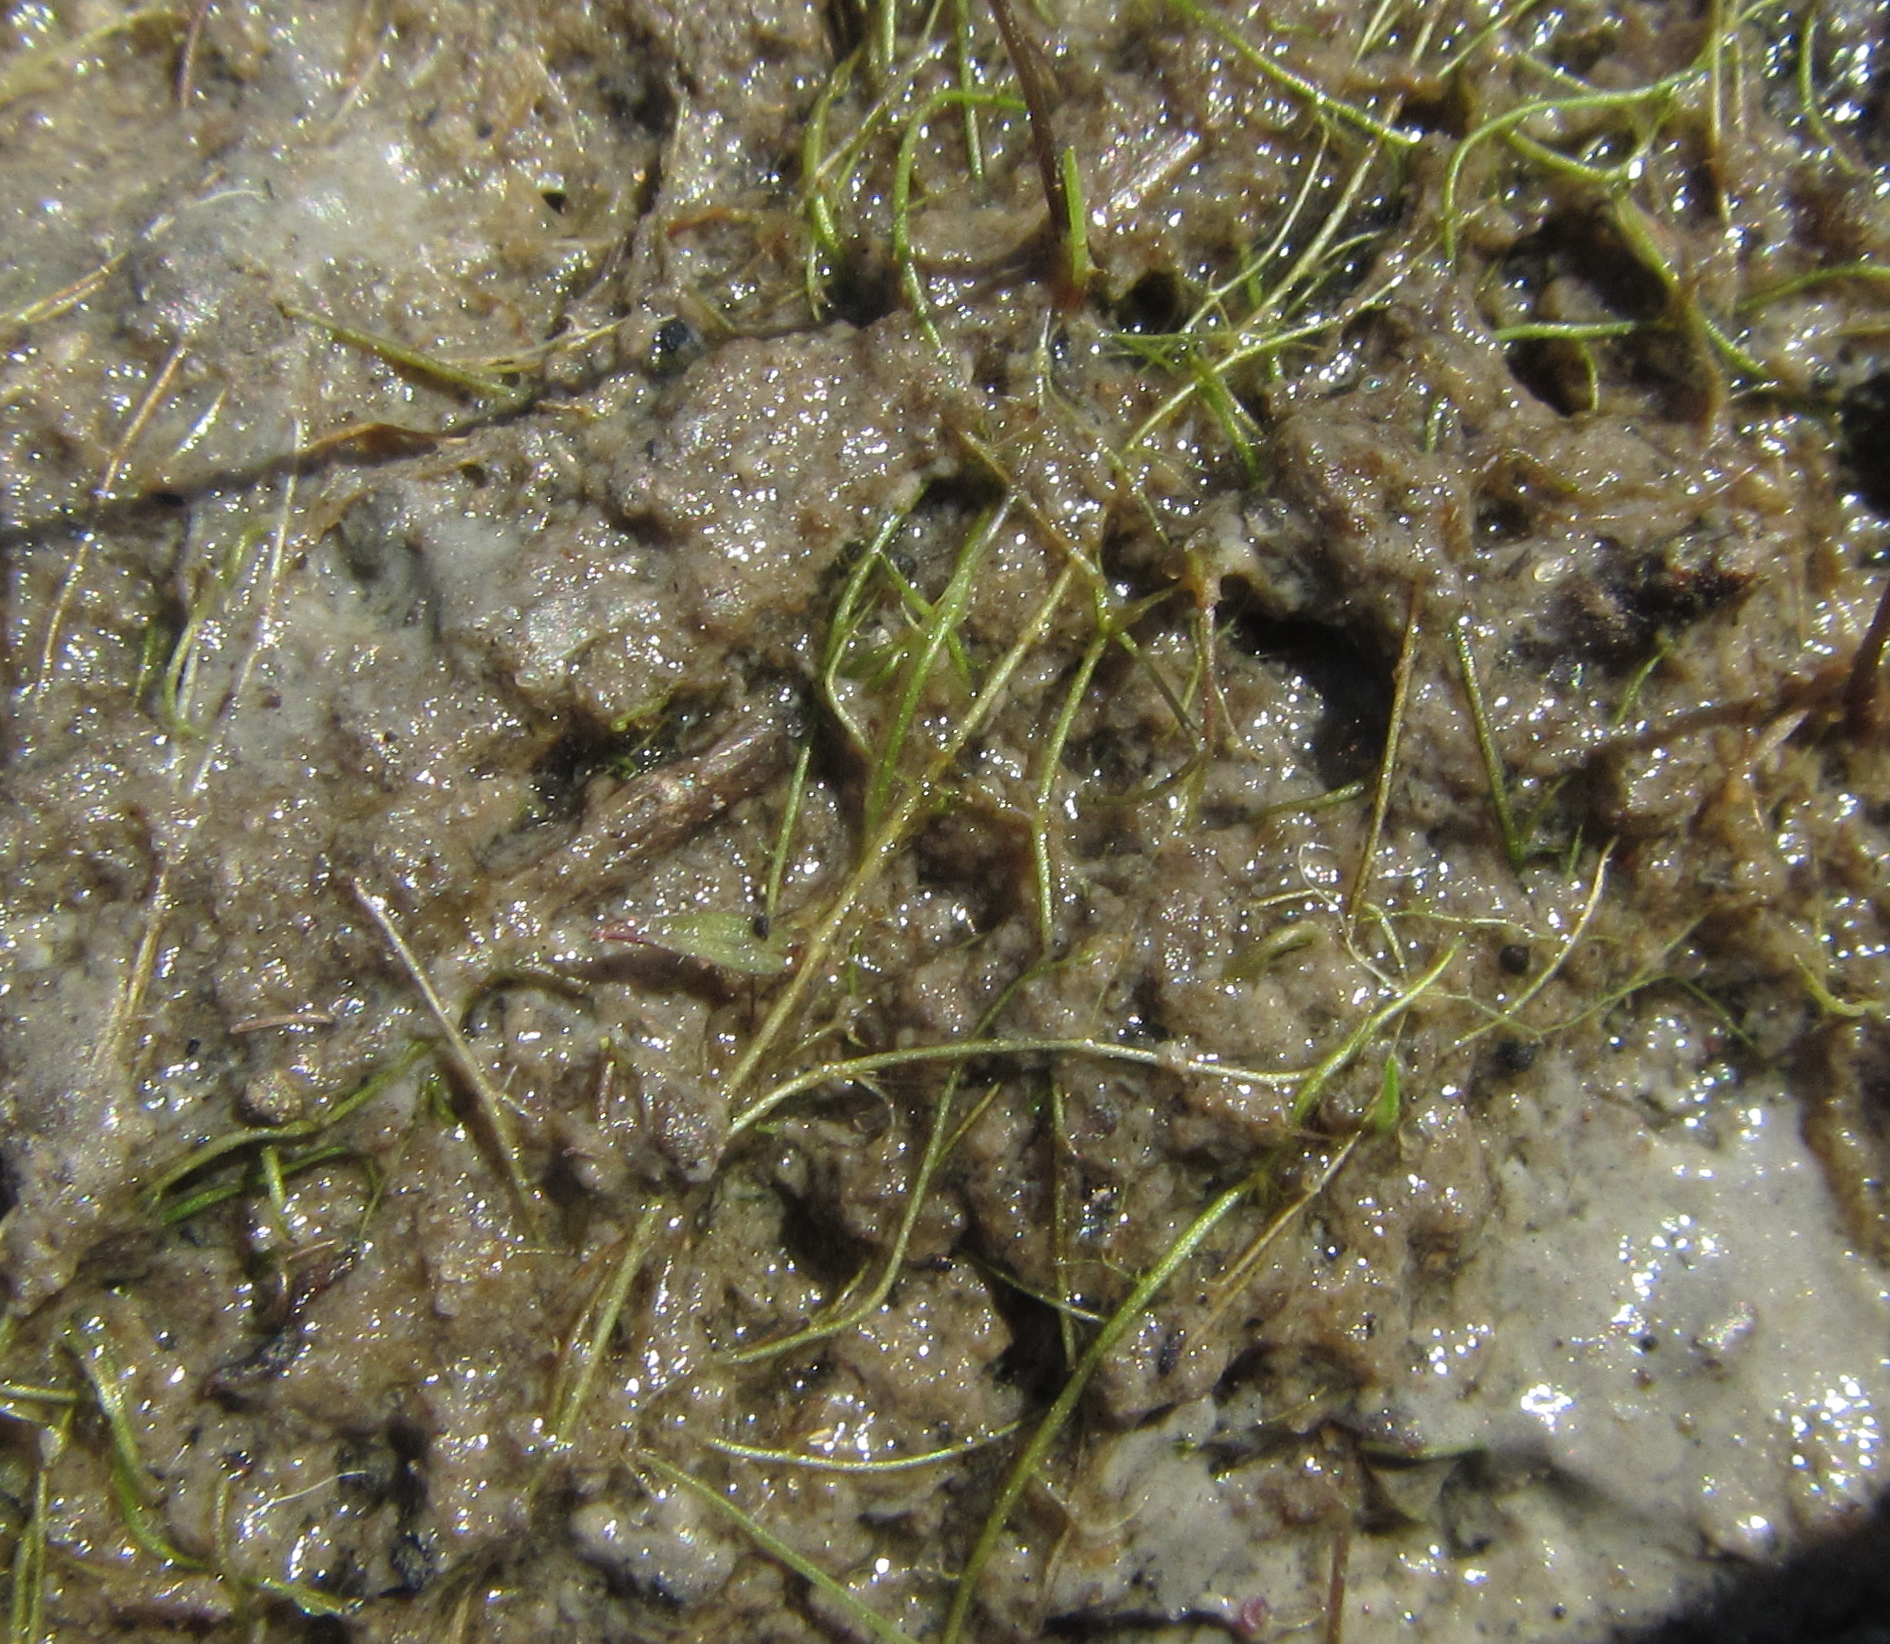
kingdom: Plantae
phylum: Tracheophyta
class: Magnoliopsida
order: Lamiales
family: Lentibulariaceae
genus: Utricularia
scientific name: Utricularia gibba
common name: Humped bladderwort
